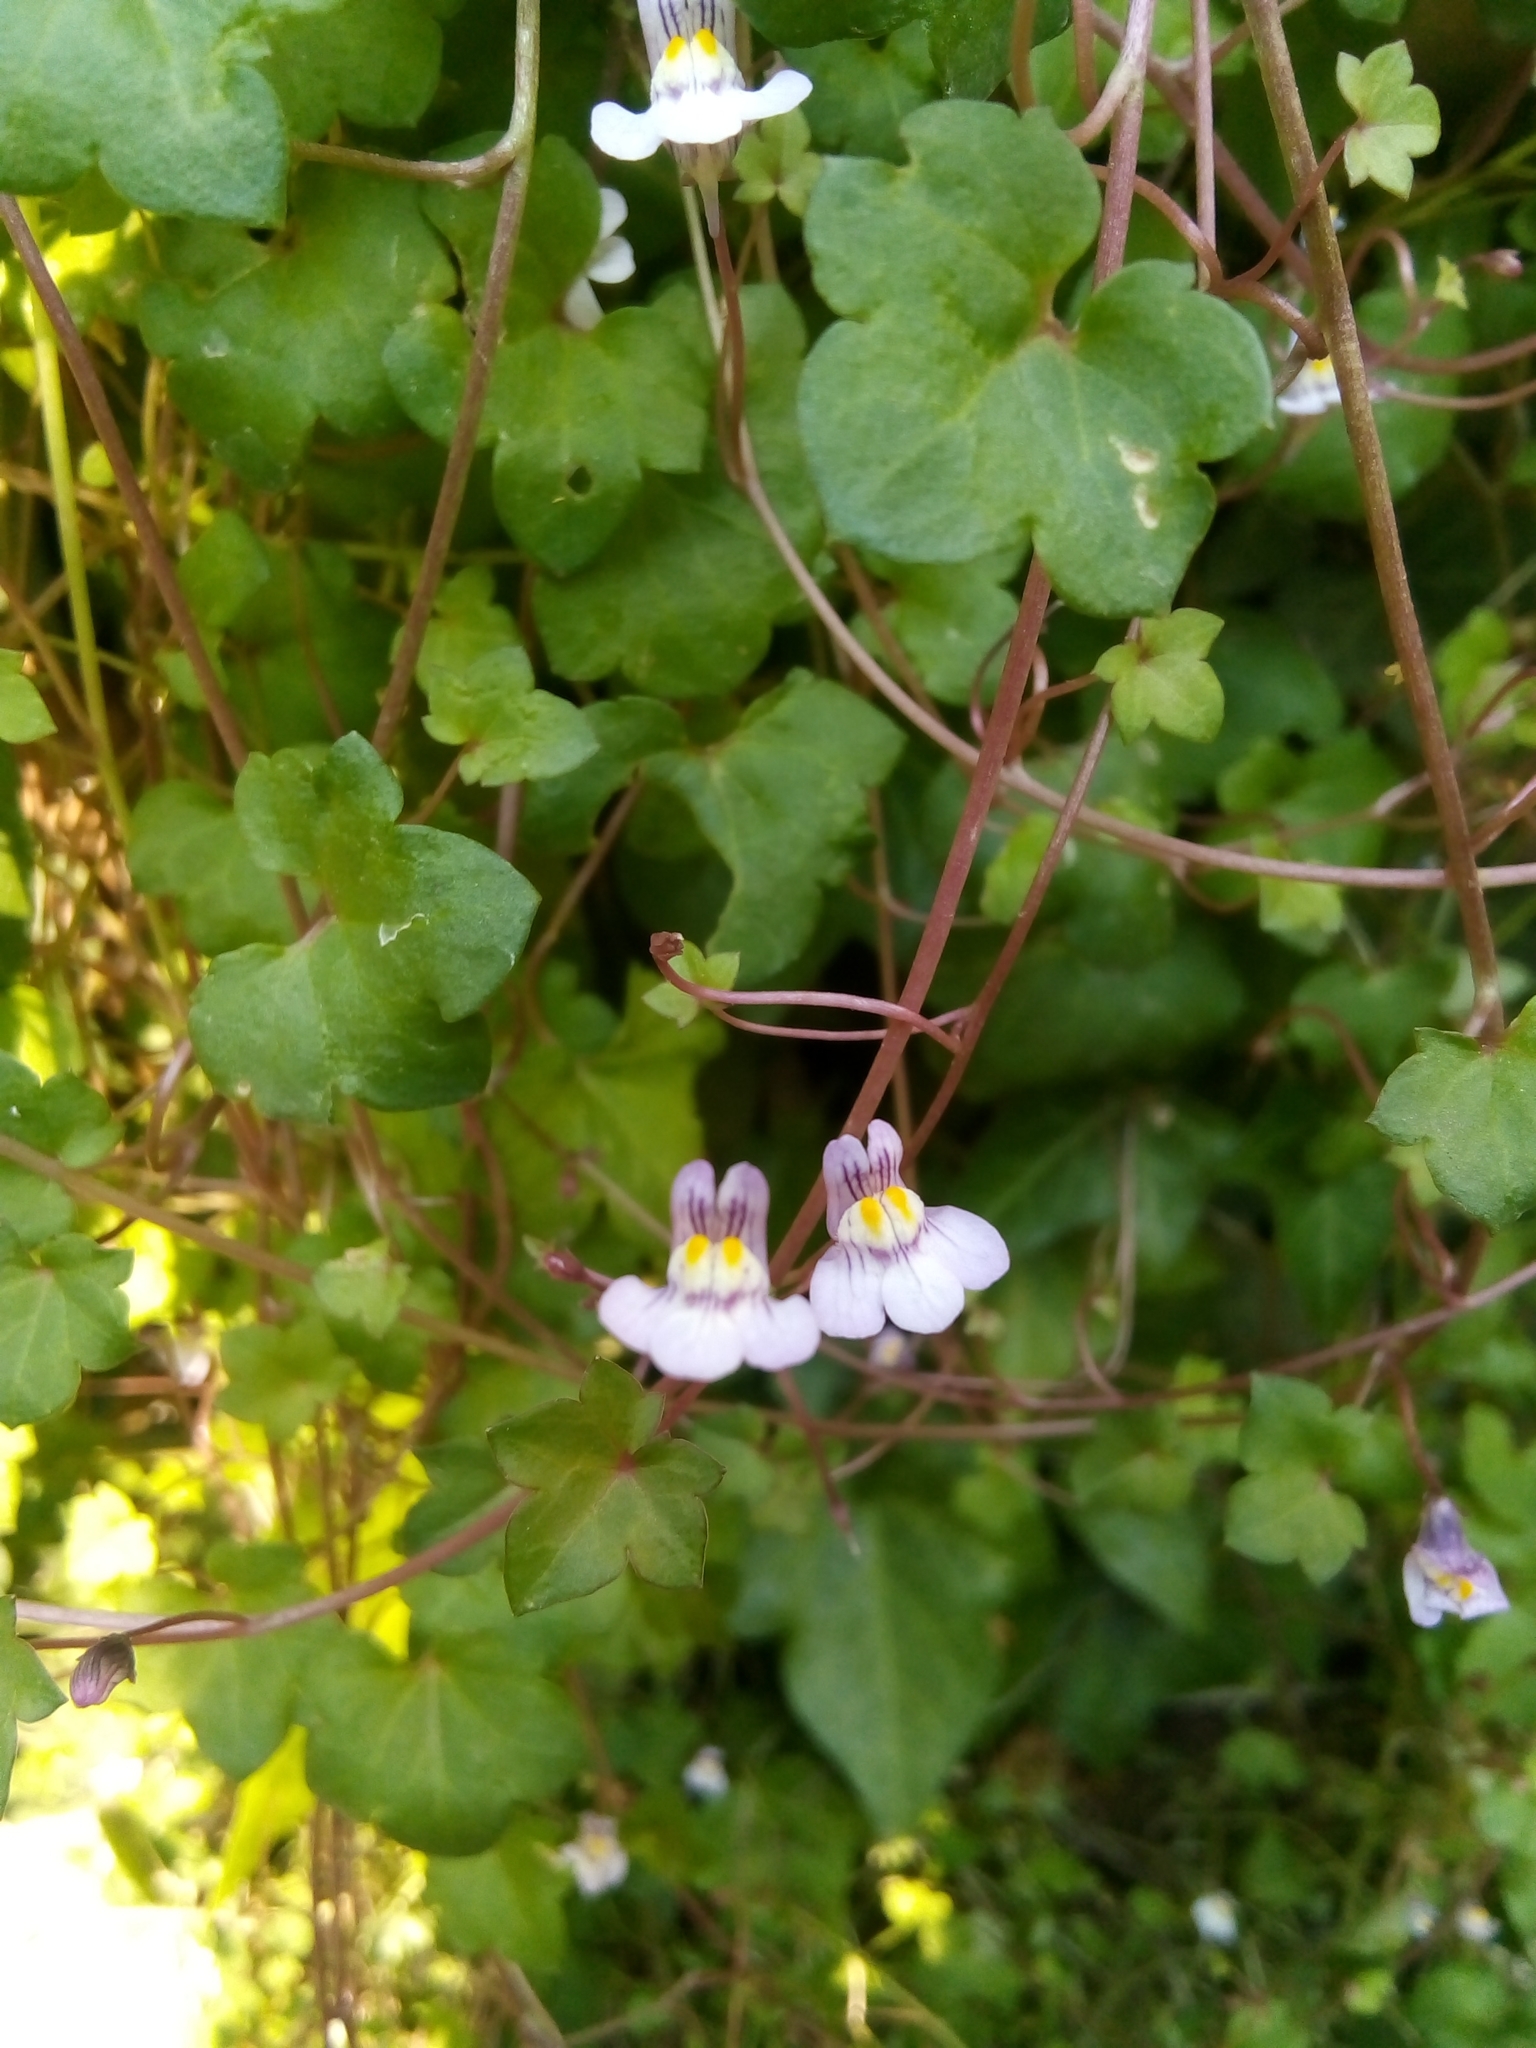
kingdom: Plantae
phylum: Tracheophyta
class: Magnoliopsida
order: Lamiales
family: Plantaginaceae
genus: Cymbalaria
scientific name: Cymbalaria muralis
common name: Ivy-leaved toadflax
